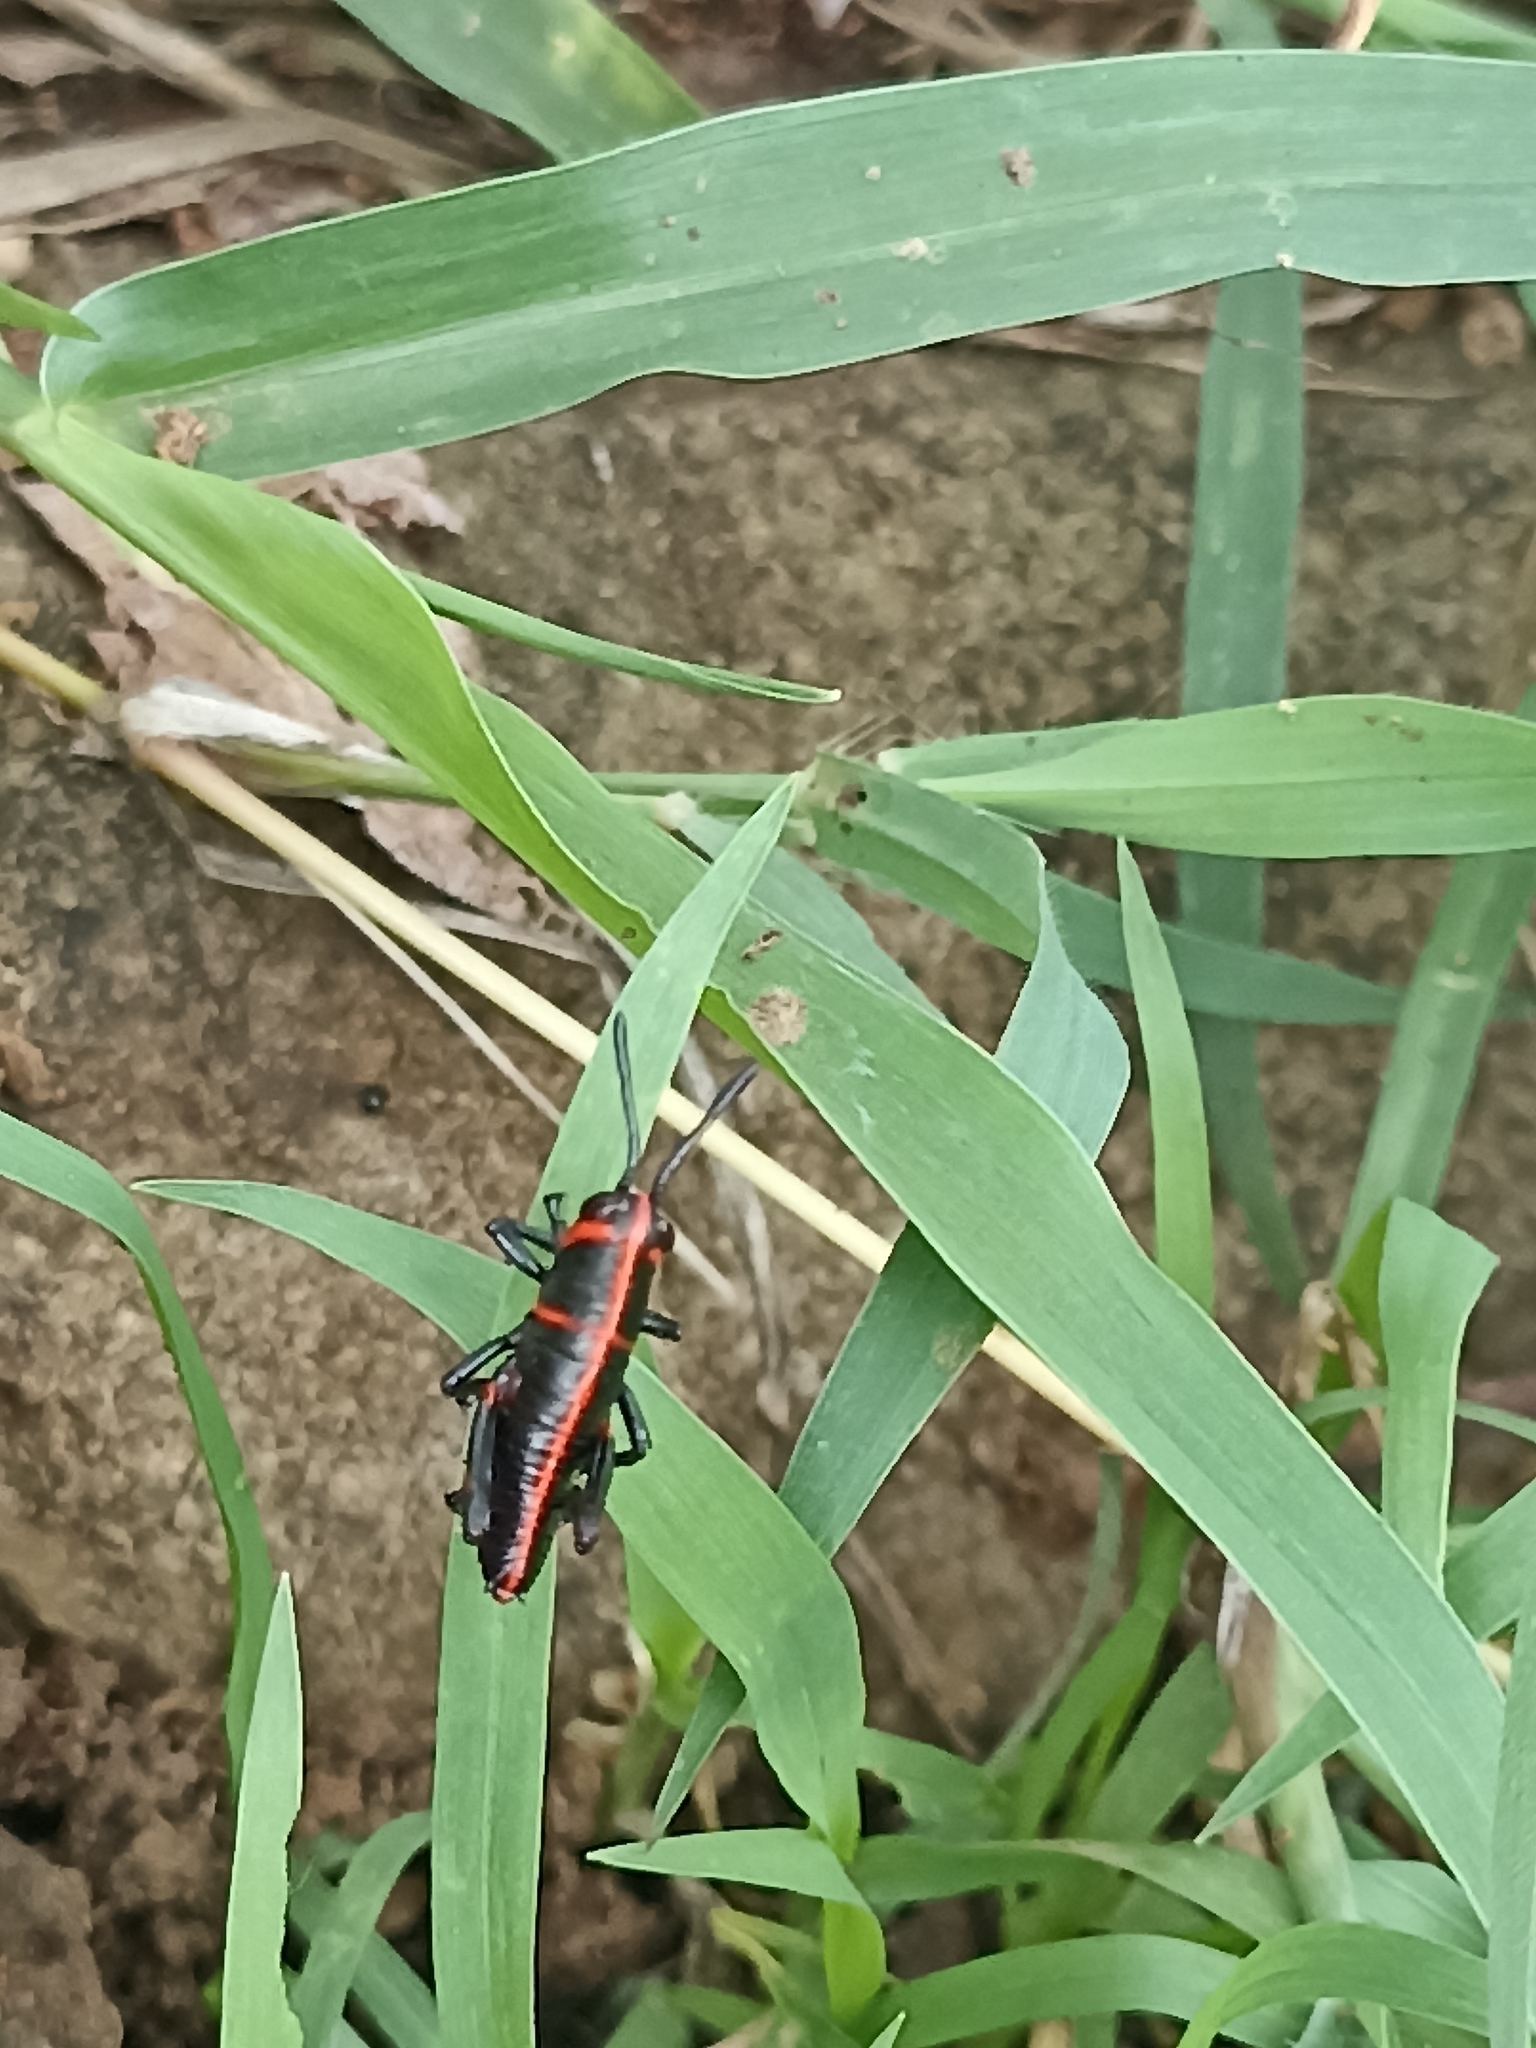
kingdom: Animalia
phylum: Arthropoda
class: Insecta
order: Orthoptera
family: Romaleidae
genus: Romalea
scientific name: Romalea
